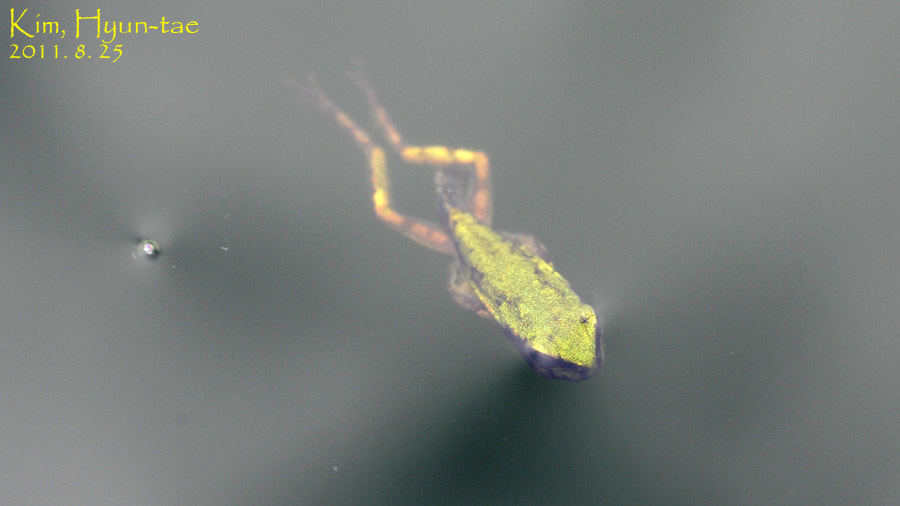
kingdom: Animalia
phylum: Chordata
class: Amphibia
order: Anura
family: Hylidae
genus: Dryophytes
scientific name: Dryophytes japonicus
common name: Japanese treefrog
